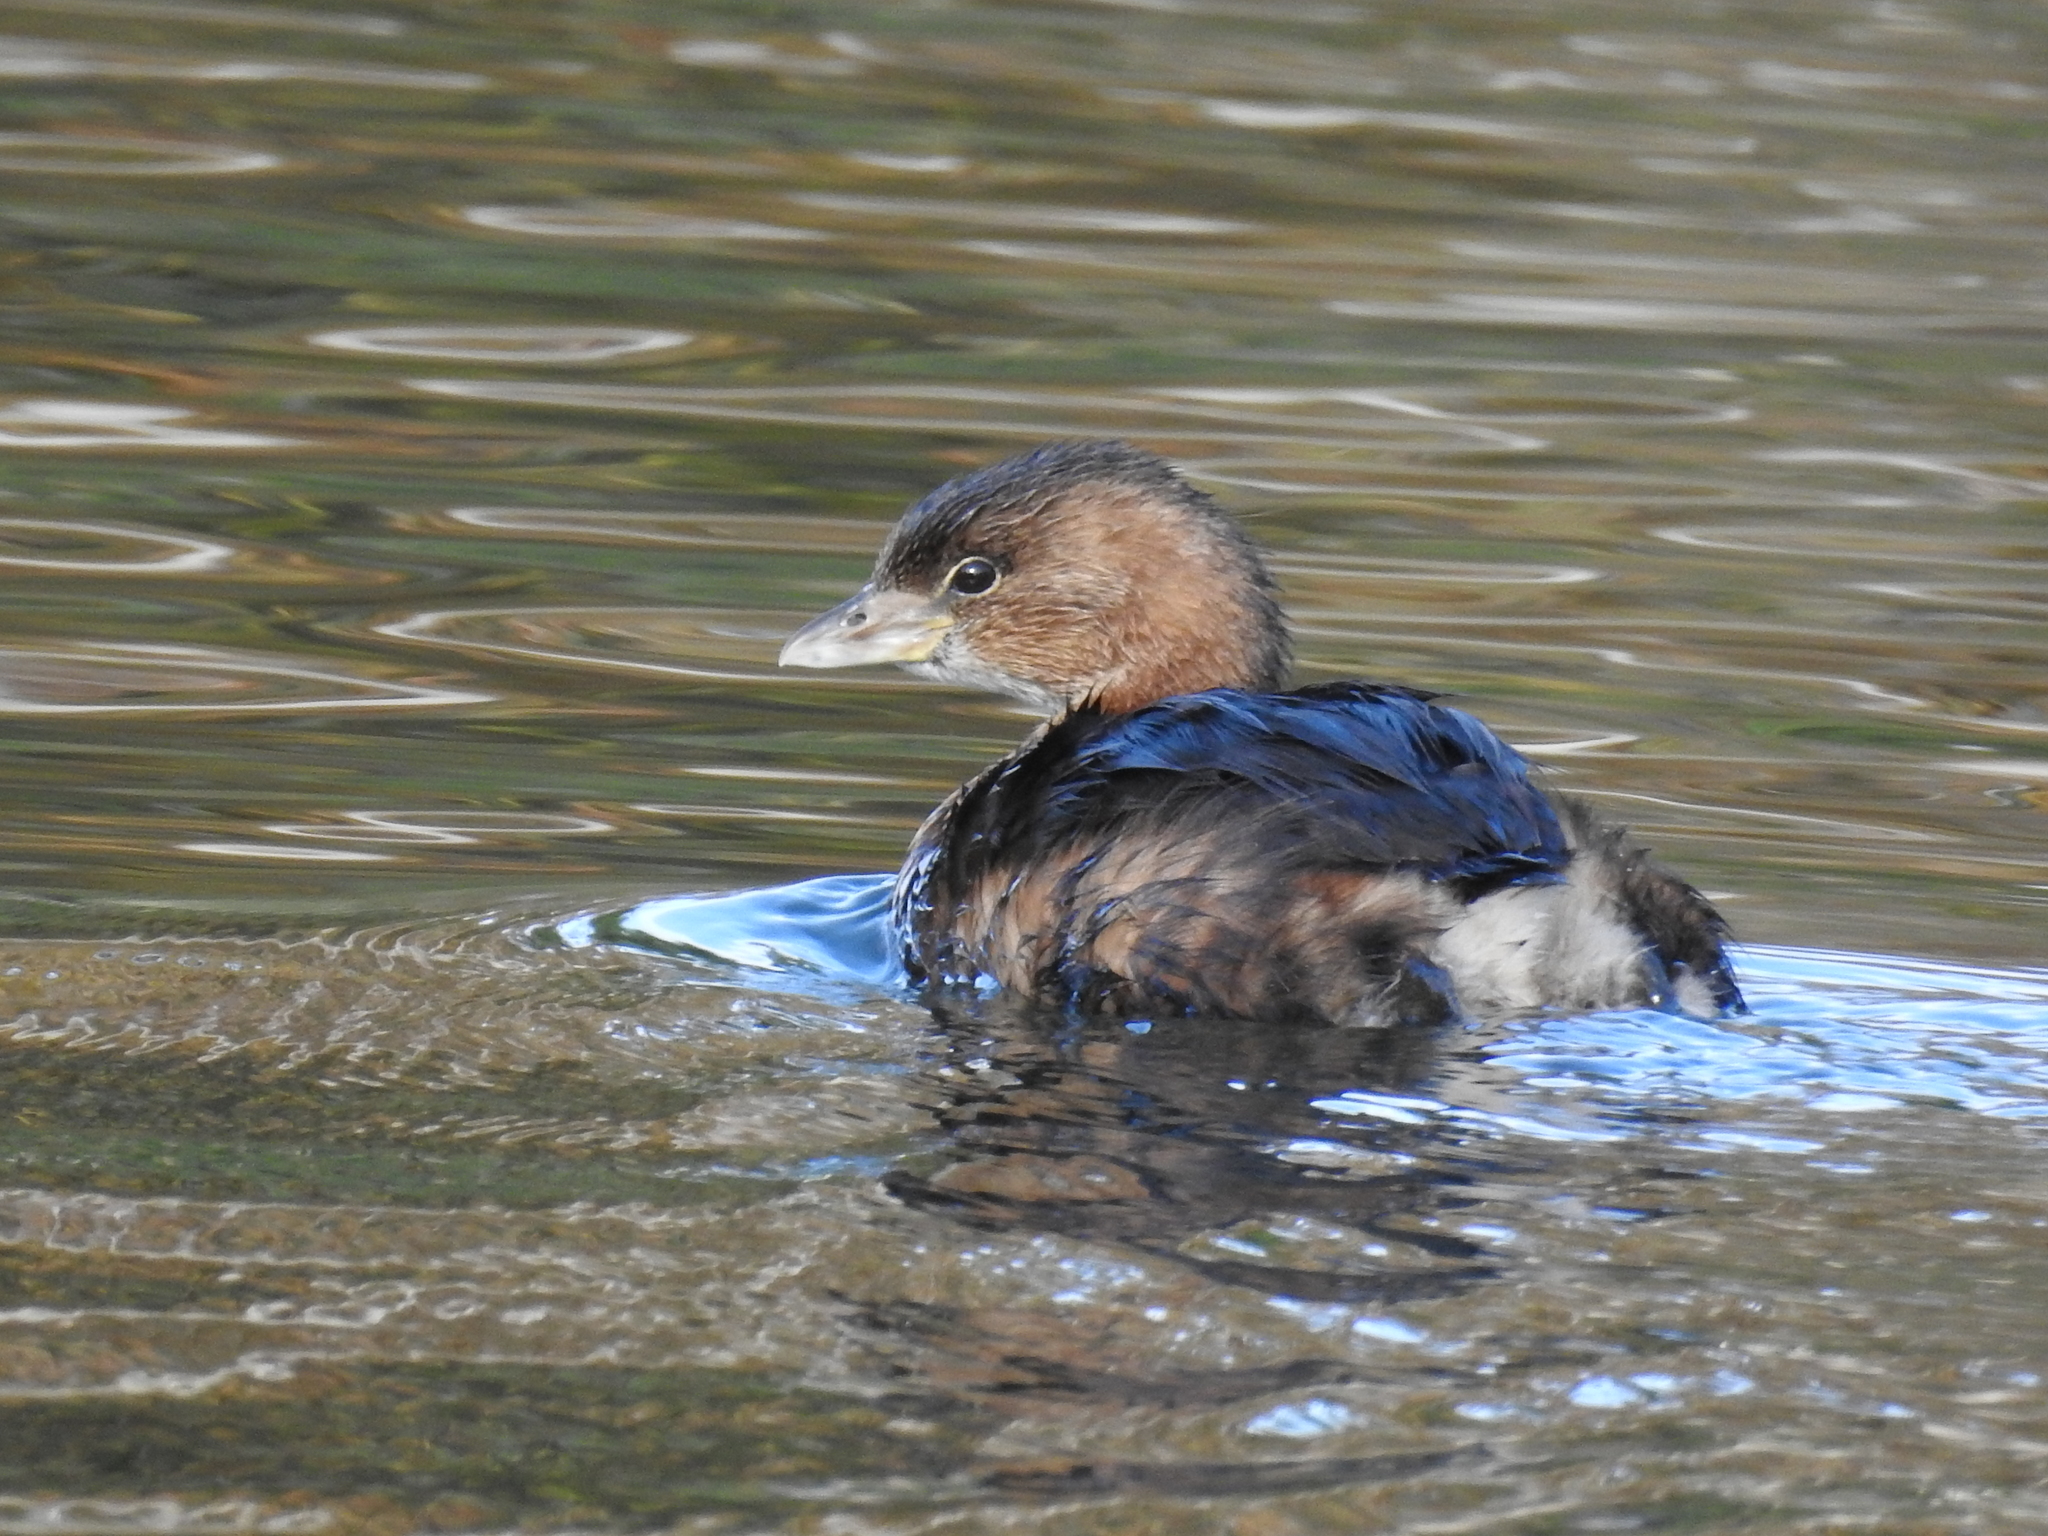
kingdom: Animalia
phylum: Chordata
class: Aves
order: Podicipediformes
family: Podicipedidae
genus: Podilymbus
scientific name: Podilymbus podiceps
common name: Pied-billed grebe
